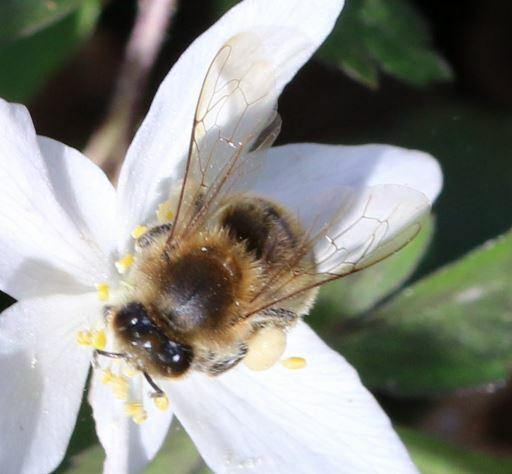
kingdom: Animalia
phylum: Arthropoda
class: Insecta
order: Hymenoptera
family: Apidae
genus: Apis
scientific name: Apis mellifera
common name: Honey bee
